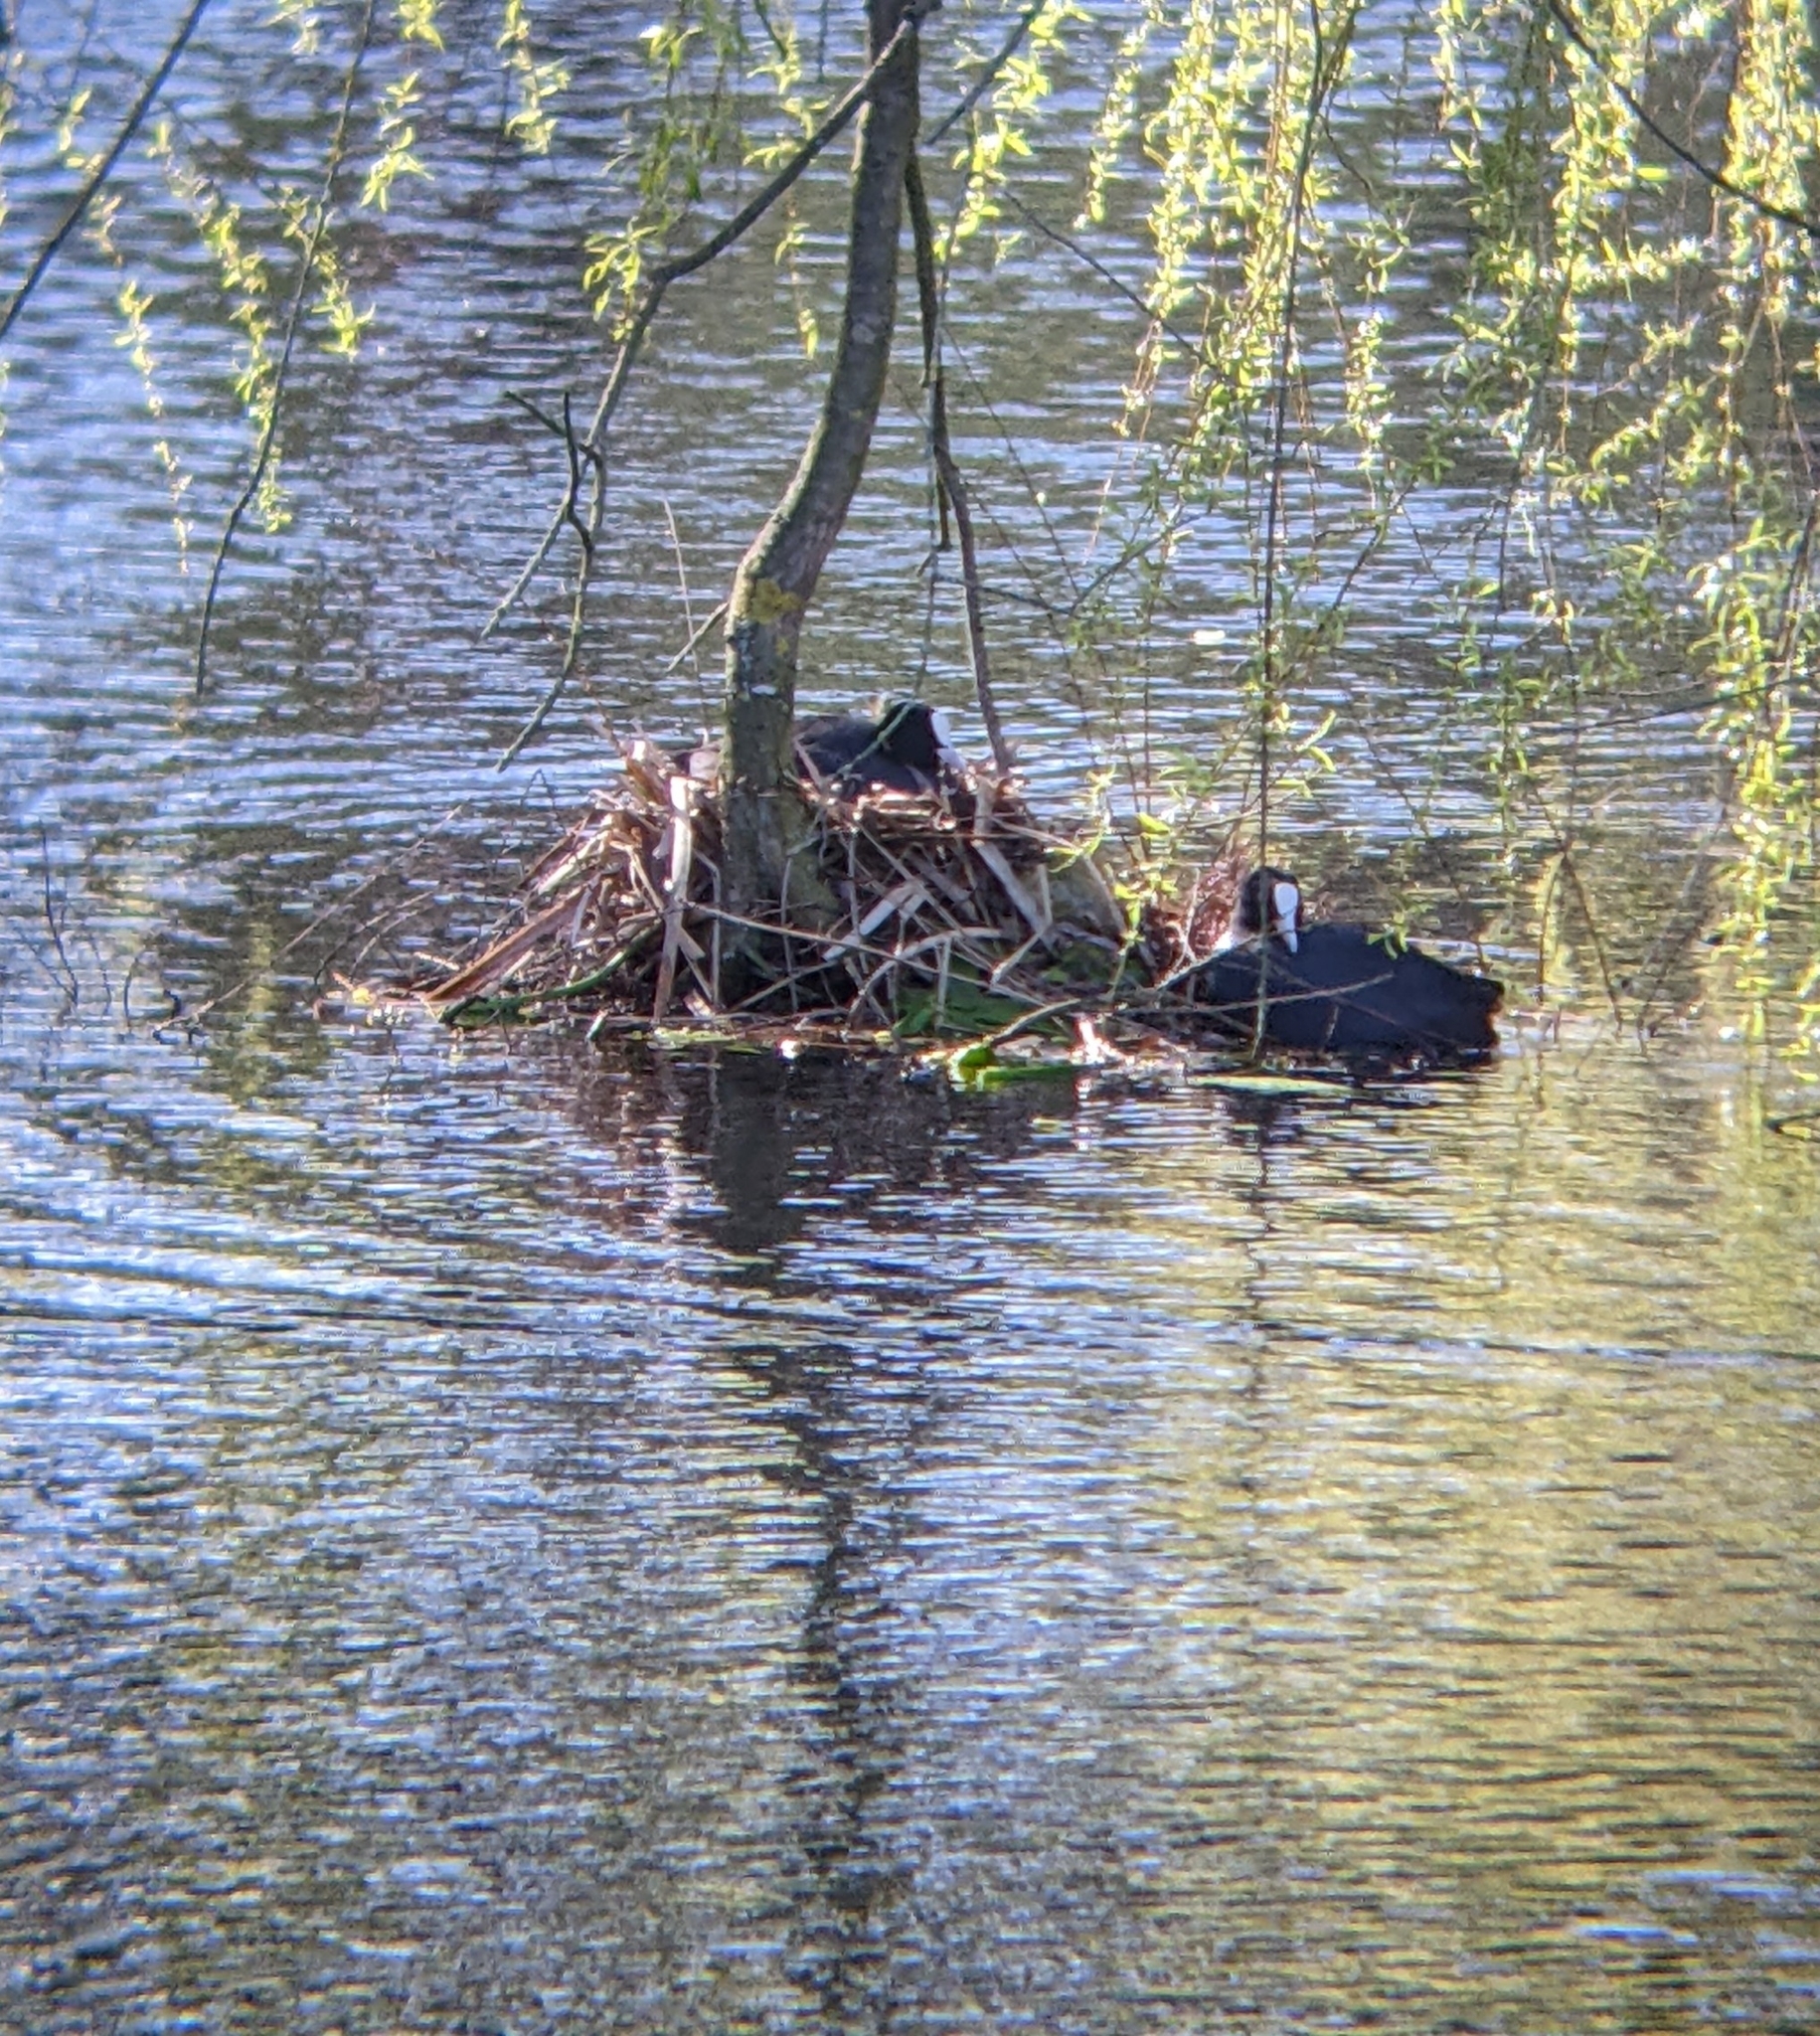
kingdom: Animalia
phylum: Chordata
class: Aves
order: Gruiformes
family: Rallidae
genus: Fulica
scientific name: Fulica atra
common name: Eurasian coot
